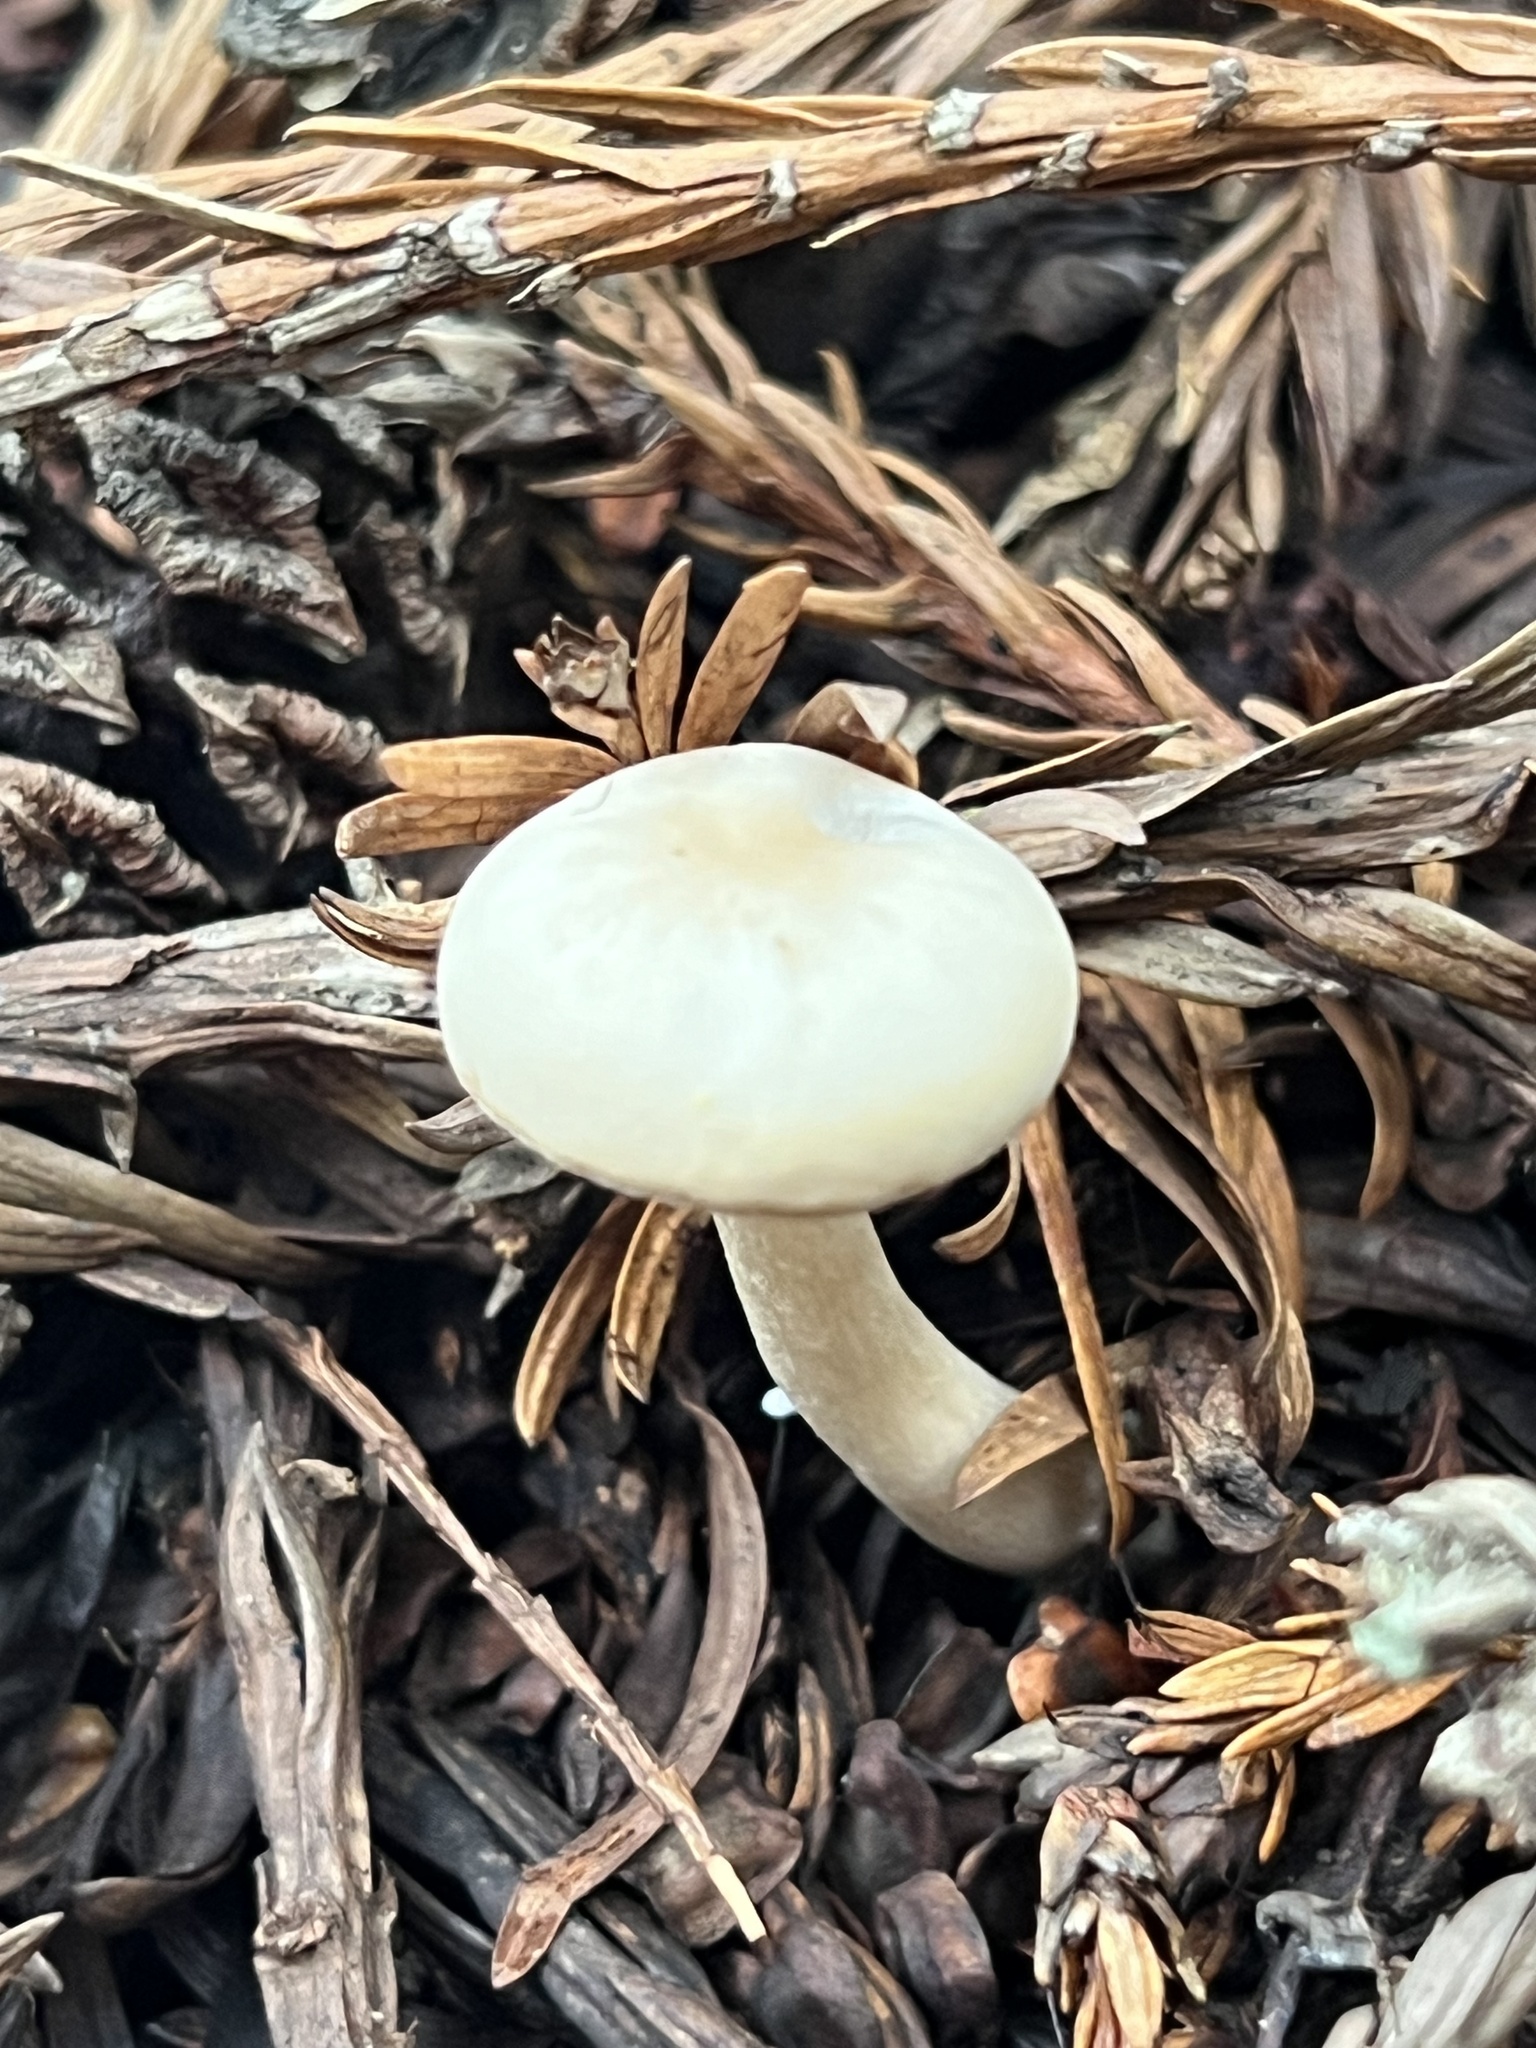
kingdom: Fungi
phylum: Basidiomycota
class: Agaricomycetes
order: Agaricales
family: Tricholomataceae
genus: Clitocybe
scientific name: Clitocybe fragrans
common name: Fragrant funnel
